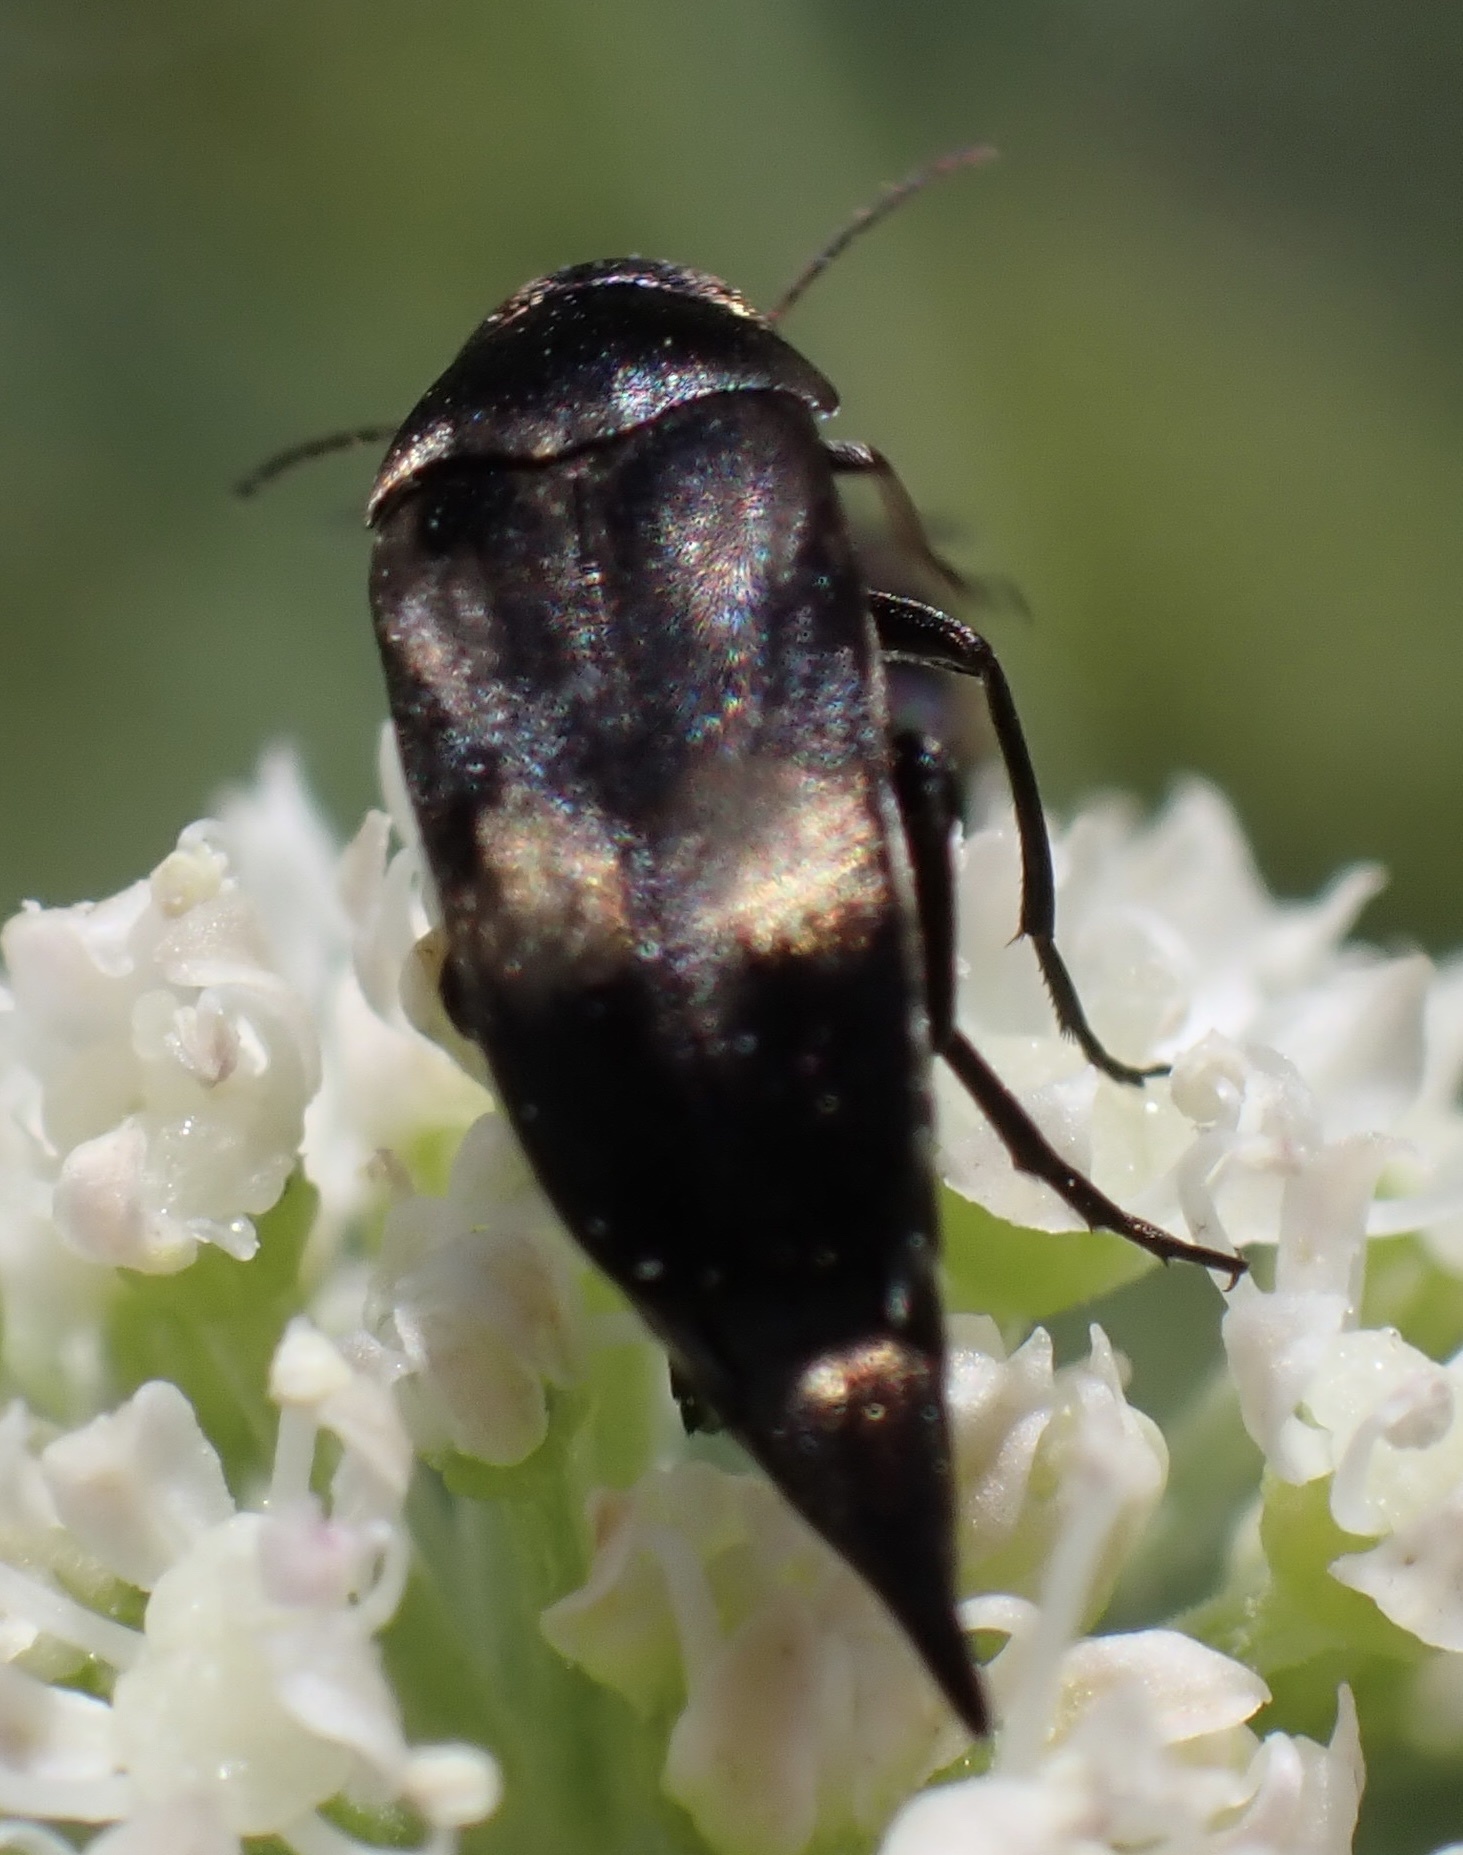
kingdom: Animalia
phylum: Arthropoda
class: Insecta
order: Coleoptera
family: Mordellidae
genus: Variimorda
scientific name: Variimorda villosa
